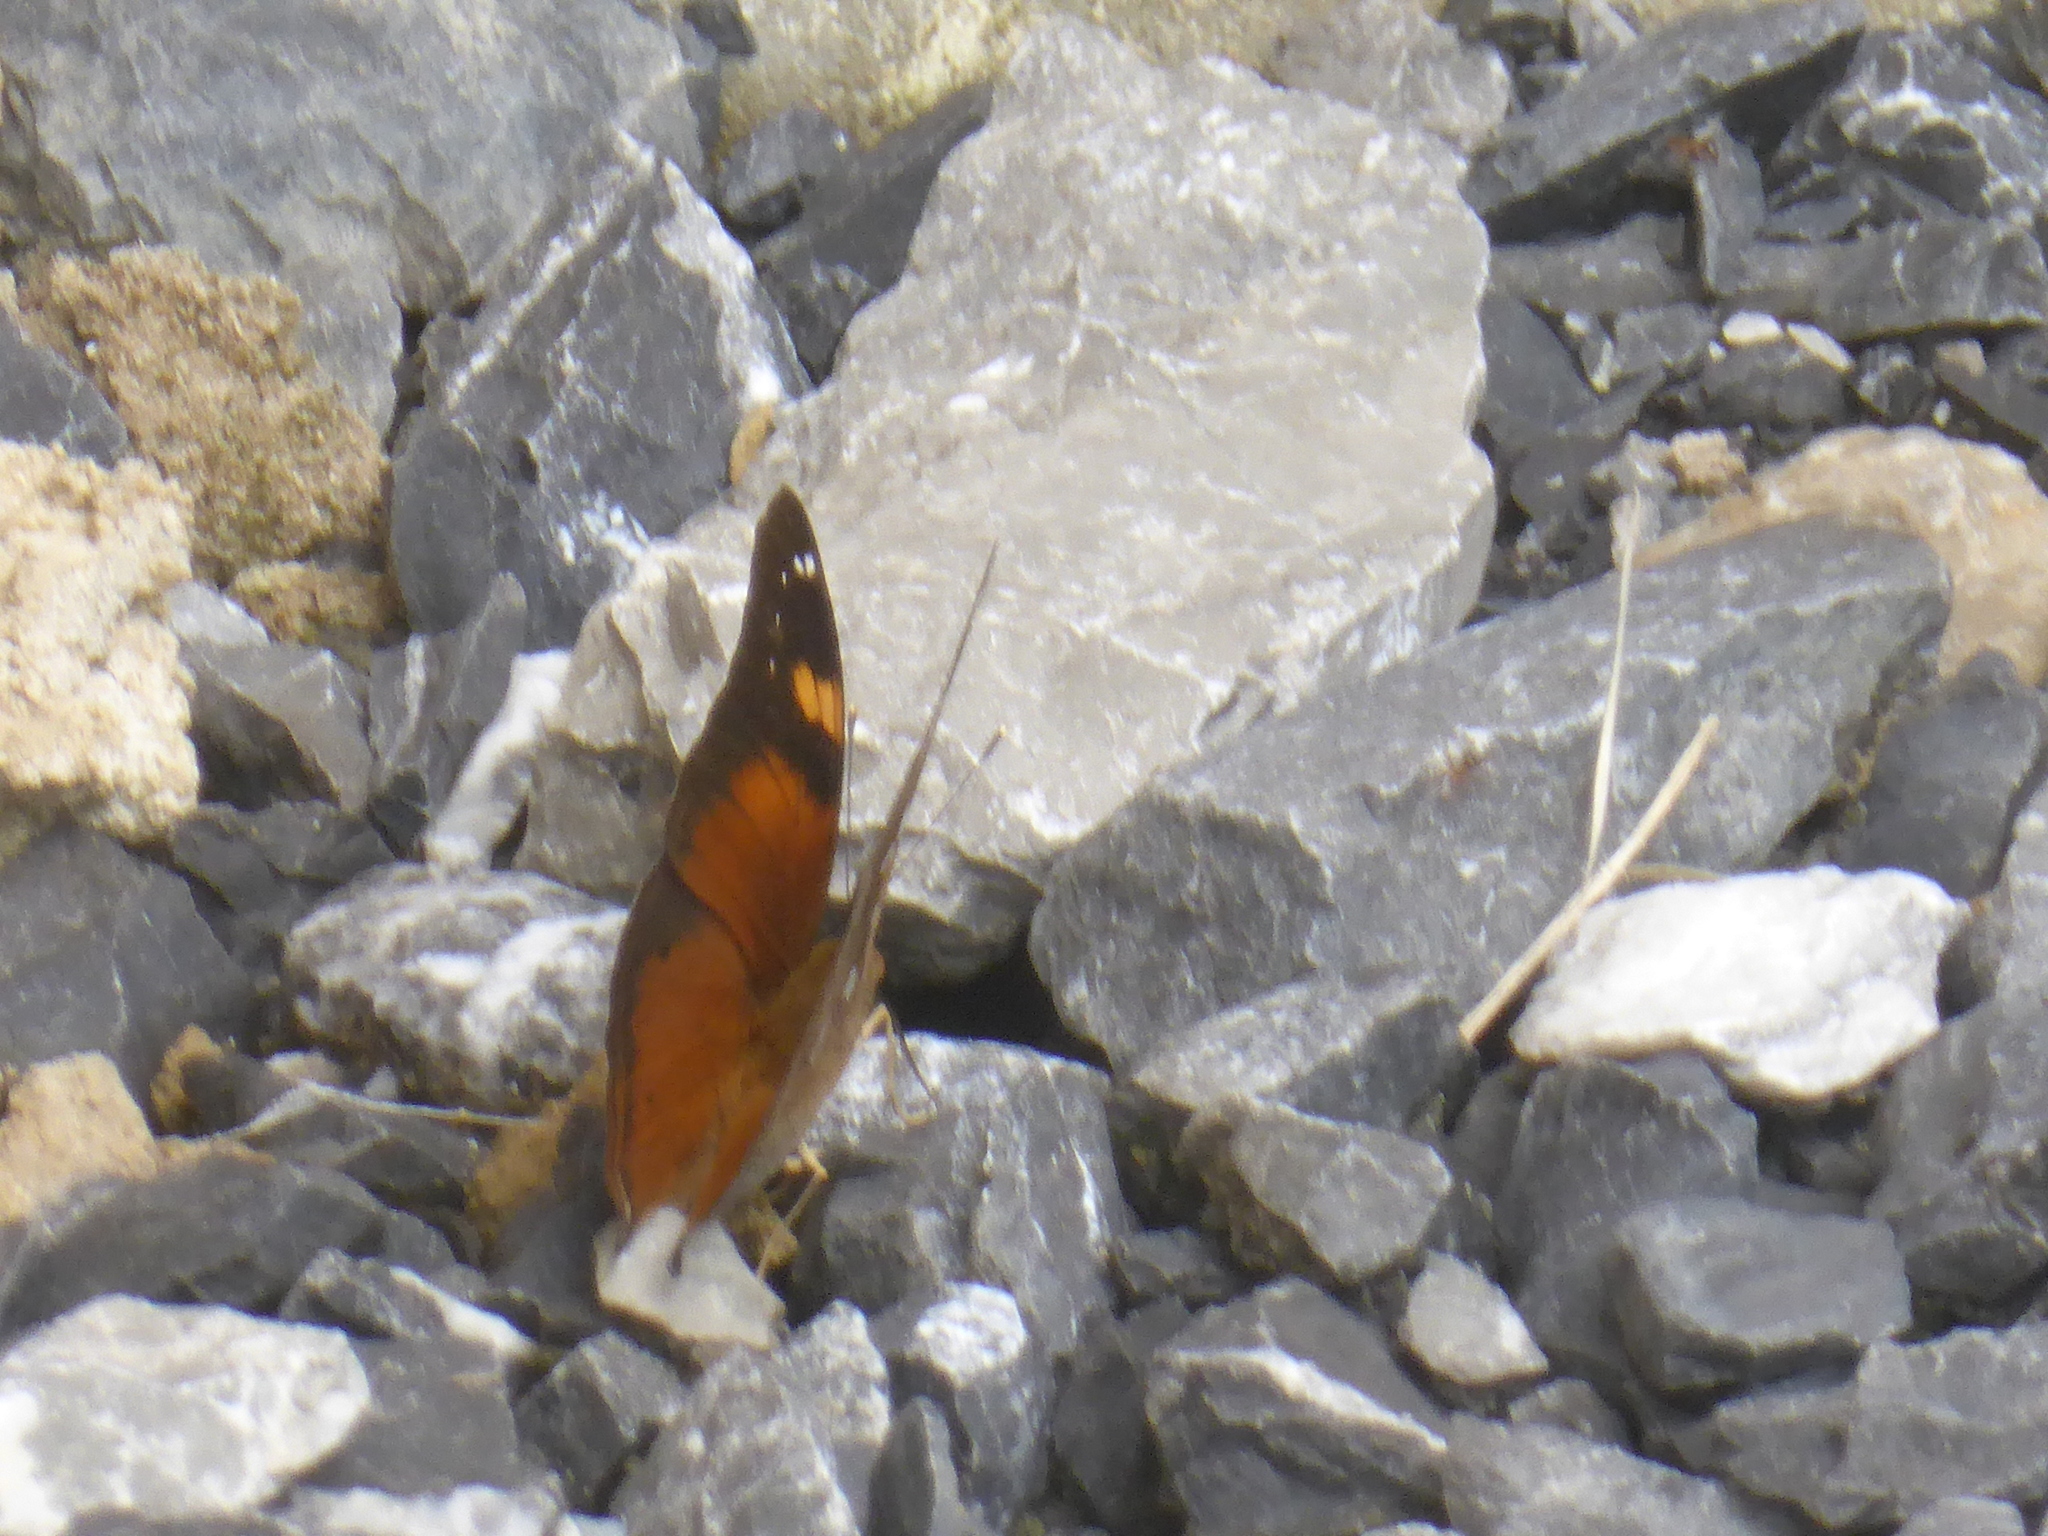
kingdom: Animalia
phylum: Arthropoda
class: Insecta
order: Lepidoptera
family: Nymphalidae
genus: Doleschallia
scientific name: Doleschallia bisaltide
